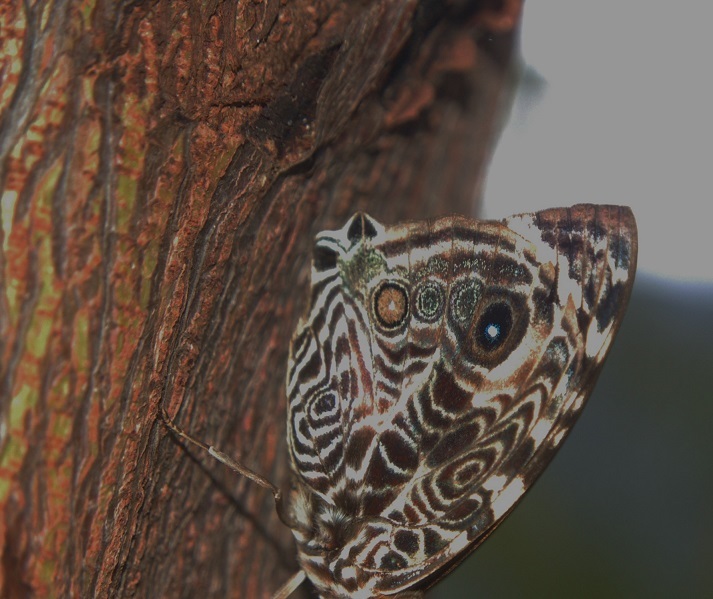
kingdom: Animalia
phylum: Arthropoda
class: Insecta
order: Lepidoptera
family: Nymphalidae
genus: Smyrna
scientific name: Smyrna blomfildia
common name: Blomfild's beauty
